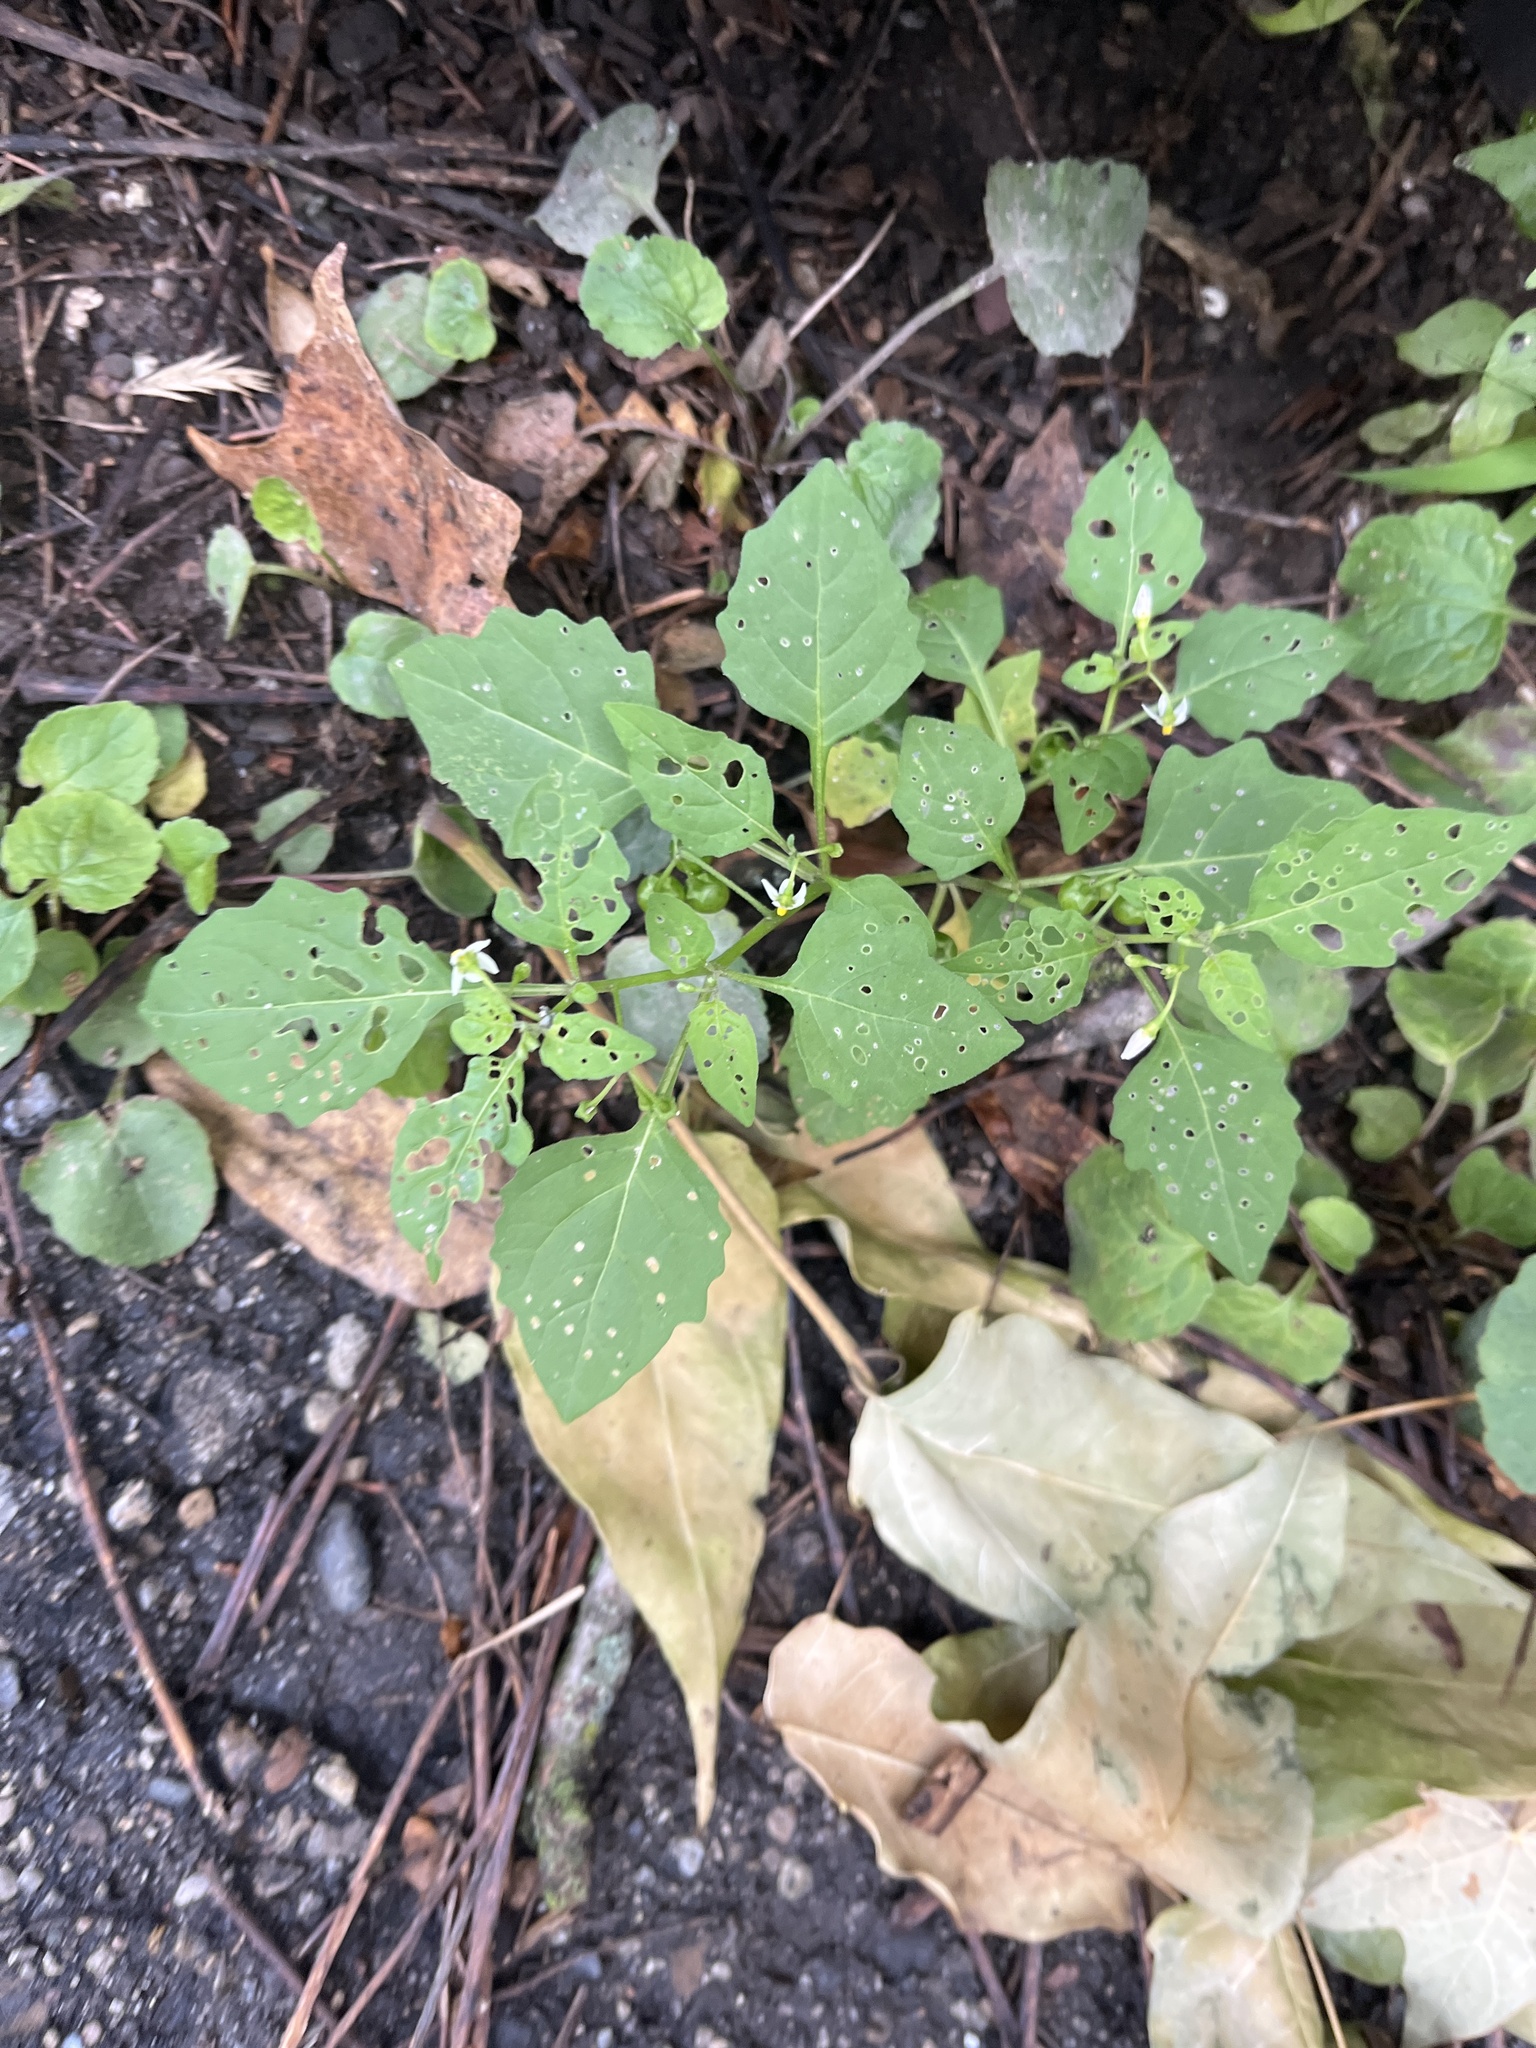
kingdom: Plantae
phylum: Tracheophyta
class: Magnoliopsida
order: Solanales
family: Solanaceae
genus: Solanum
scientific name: Solanum emulans
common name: Eastern black nightshade
